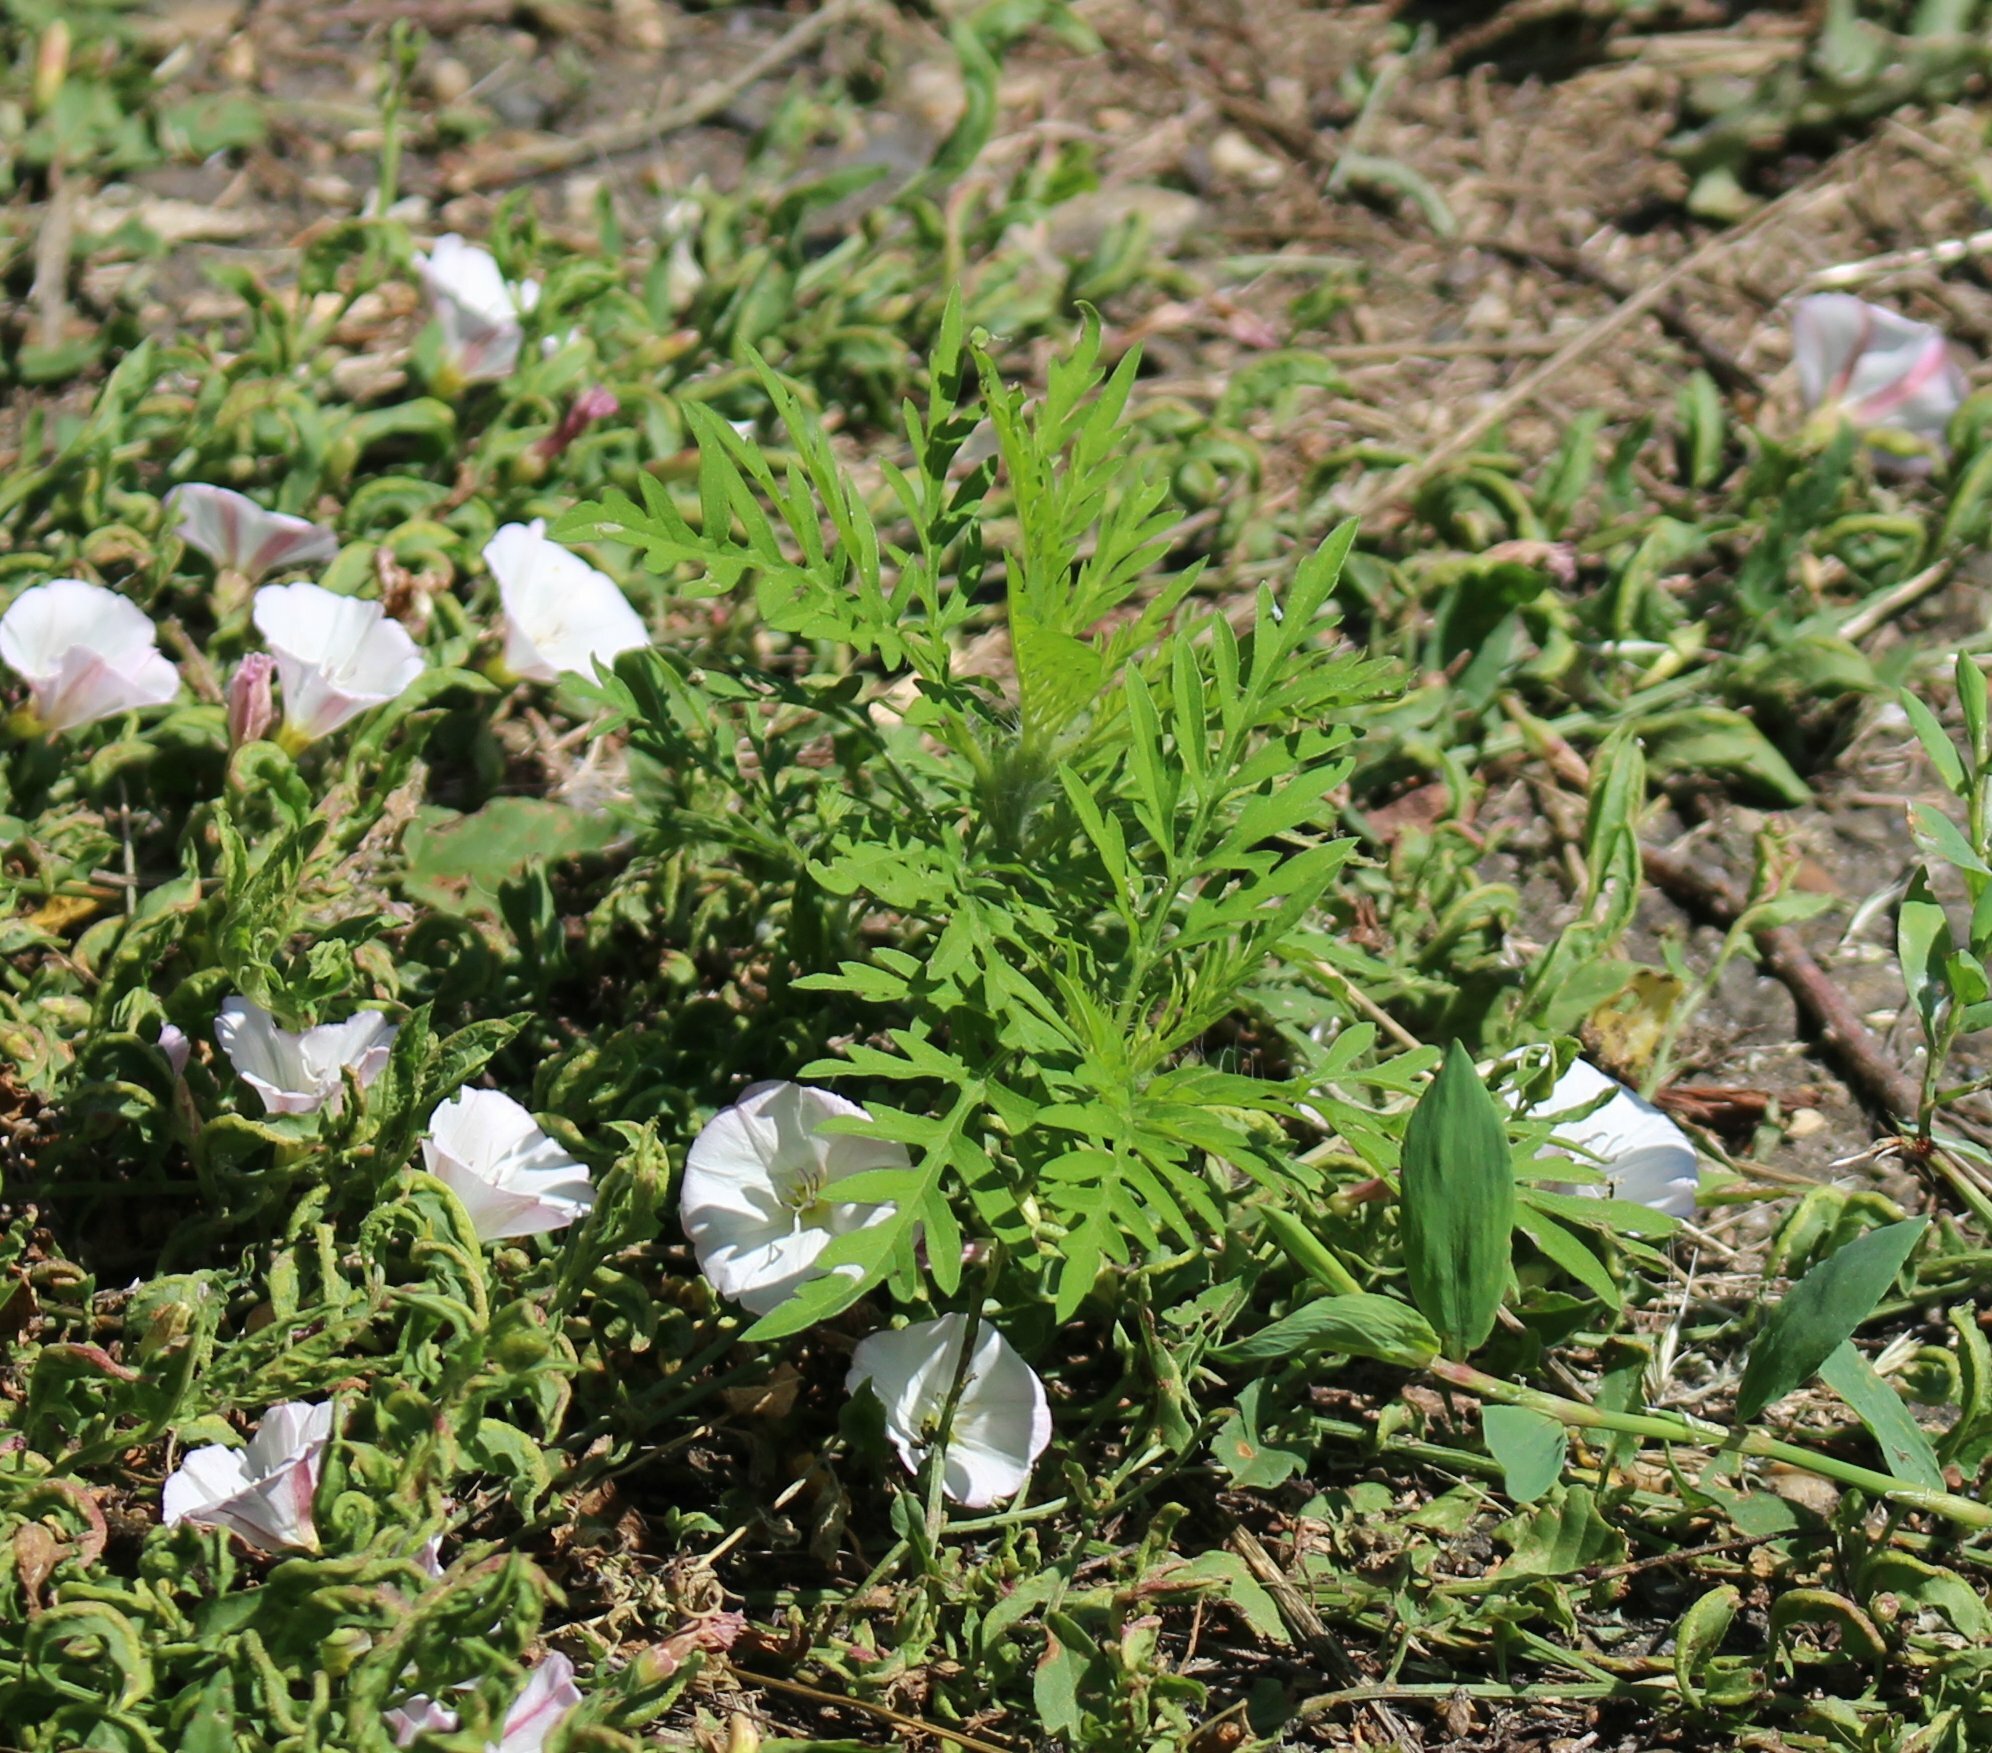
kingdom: Plantae
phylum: Tracheophyta
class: Magnoliopsida
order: Asterales
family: Asteraceae
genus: Ambrosia
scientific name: Ambrosia artemisiifolia
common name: Annual ragweed
